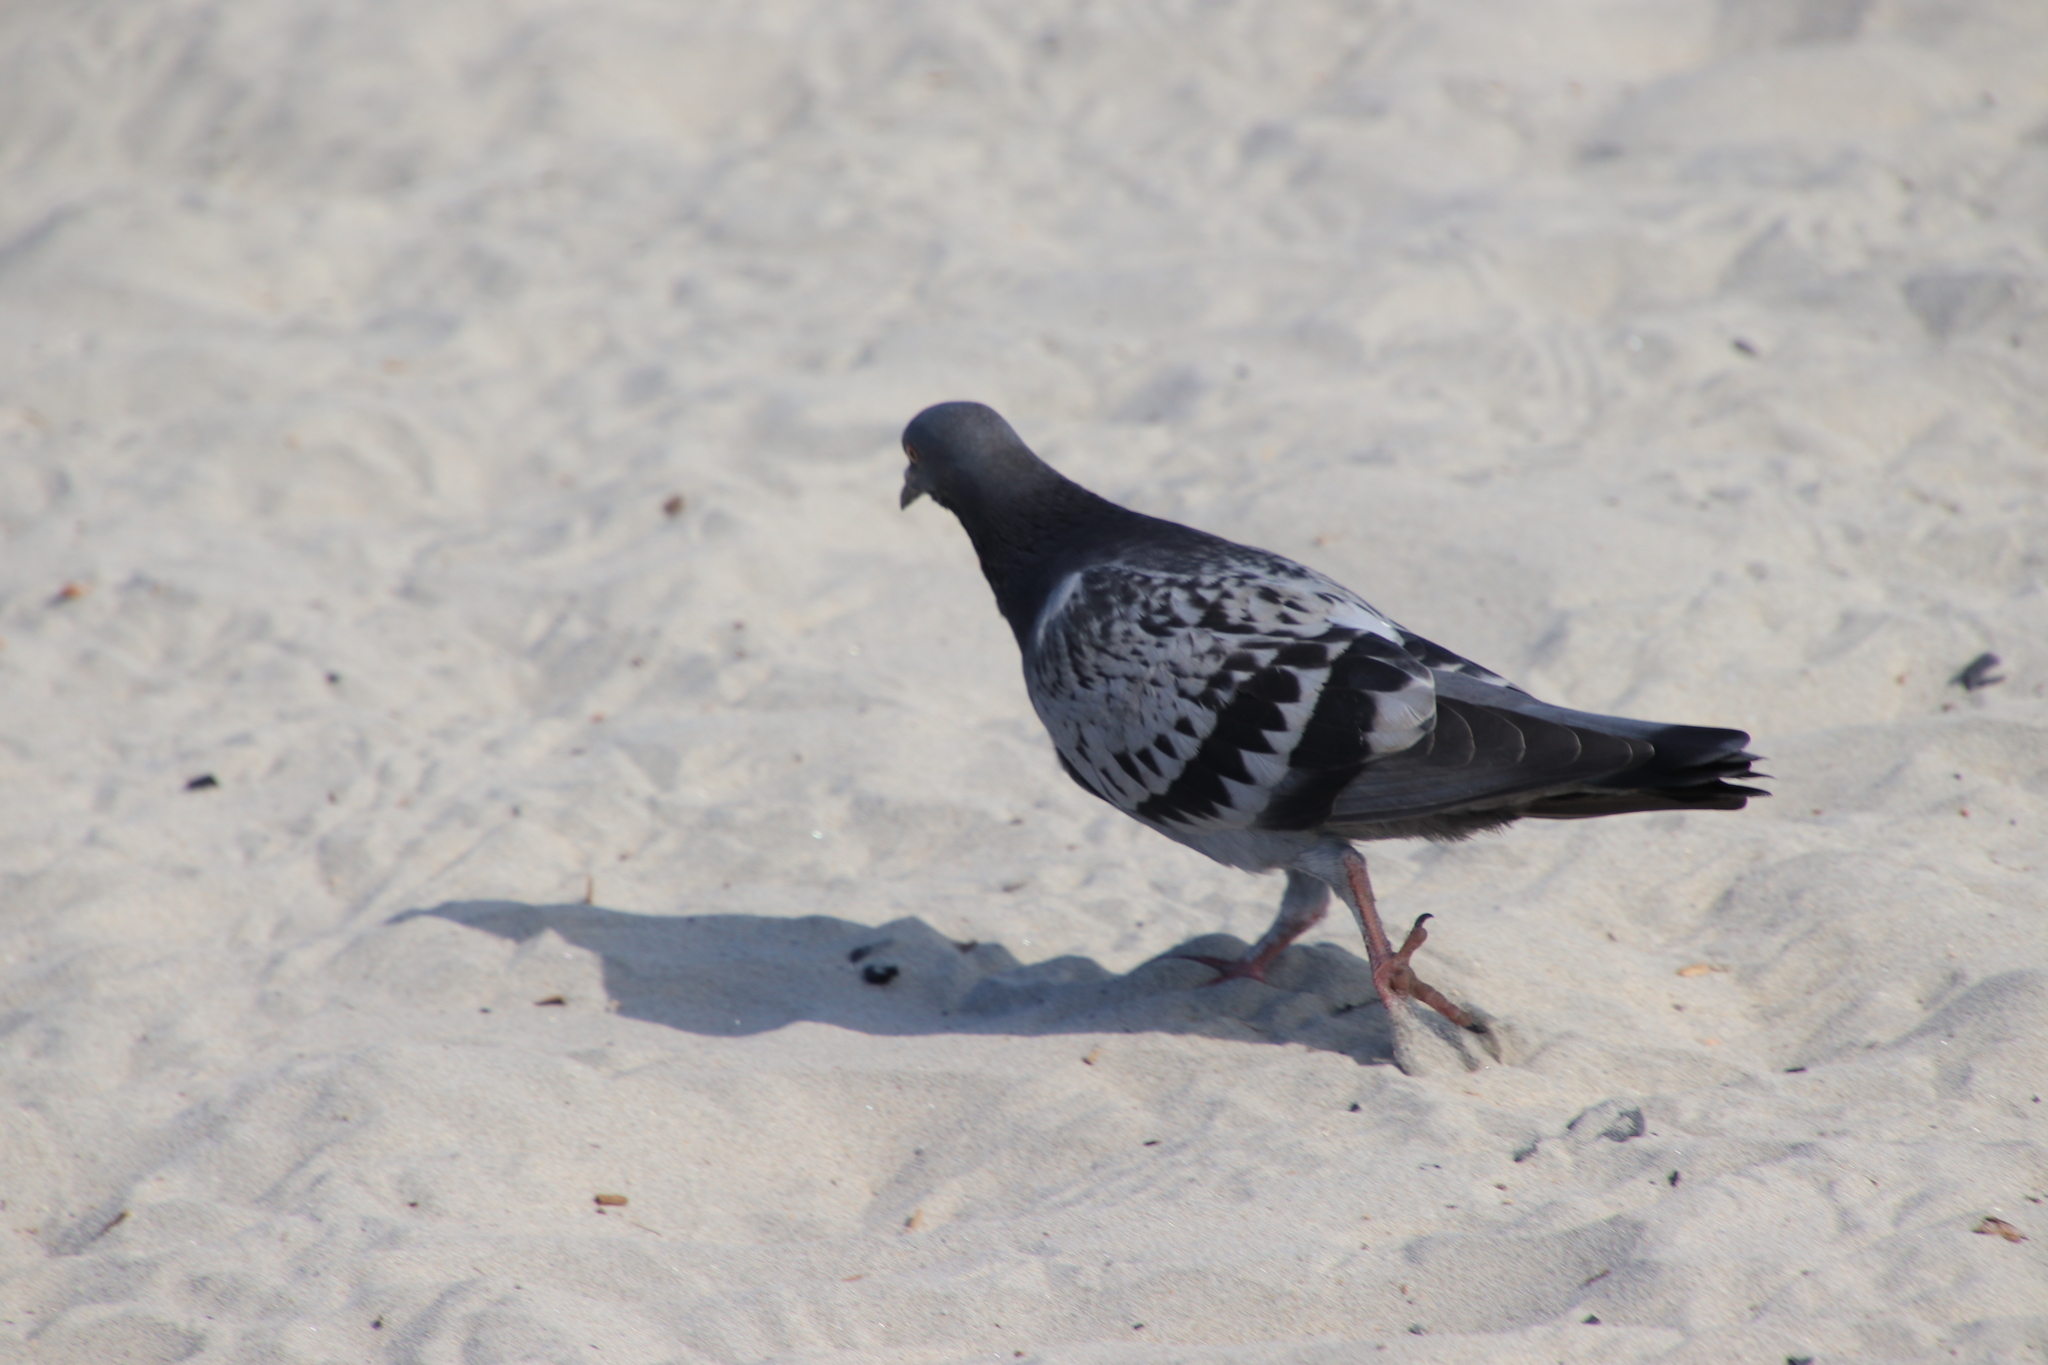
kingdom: Animalia
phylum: Chordata
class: Aves
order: Columbiformes
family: Columbidae
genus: Columba
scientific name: Columba livia
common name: Rock pigeon
